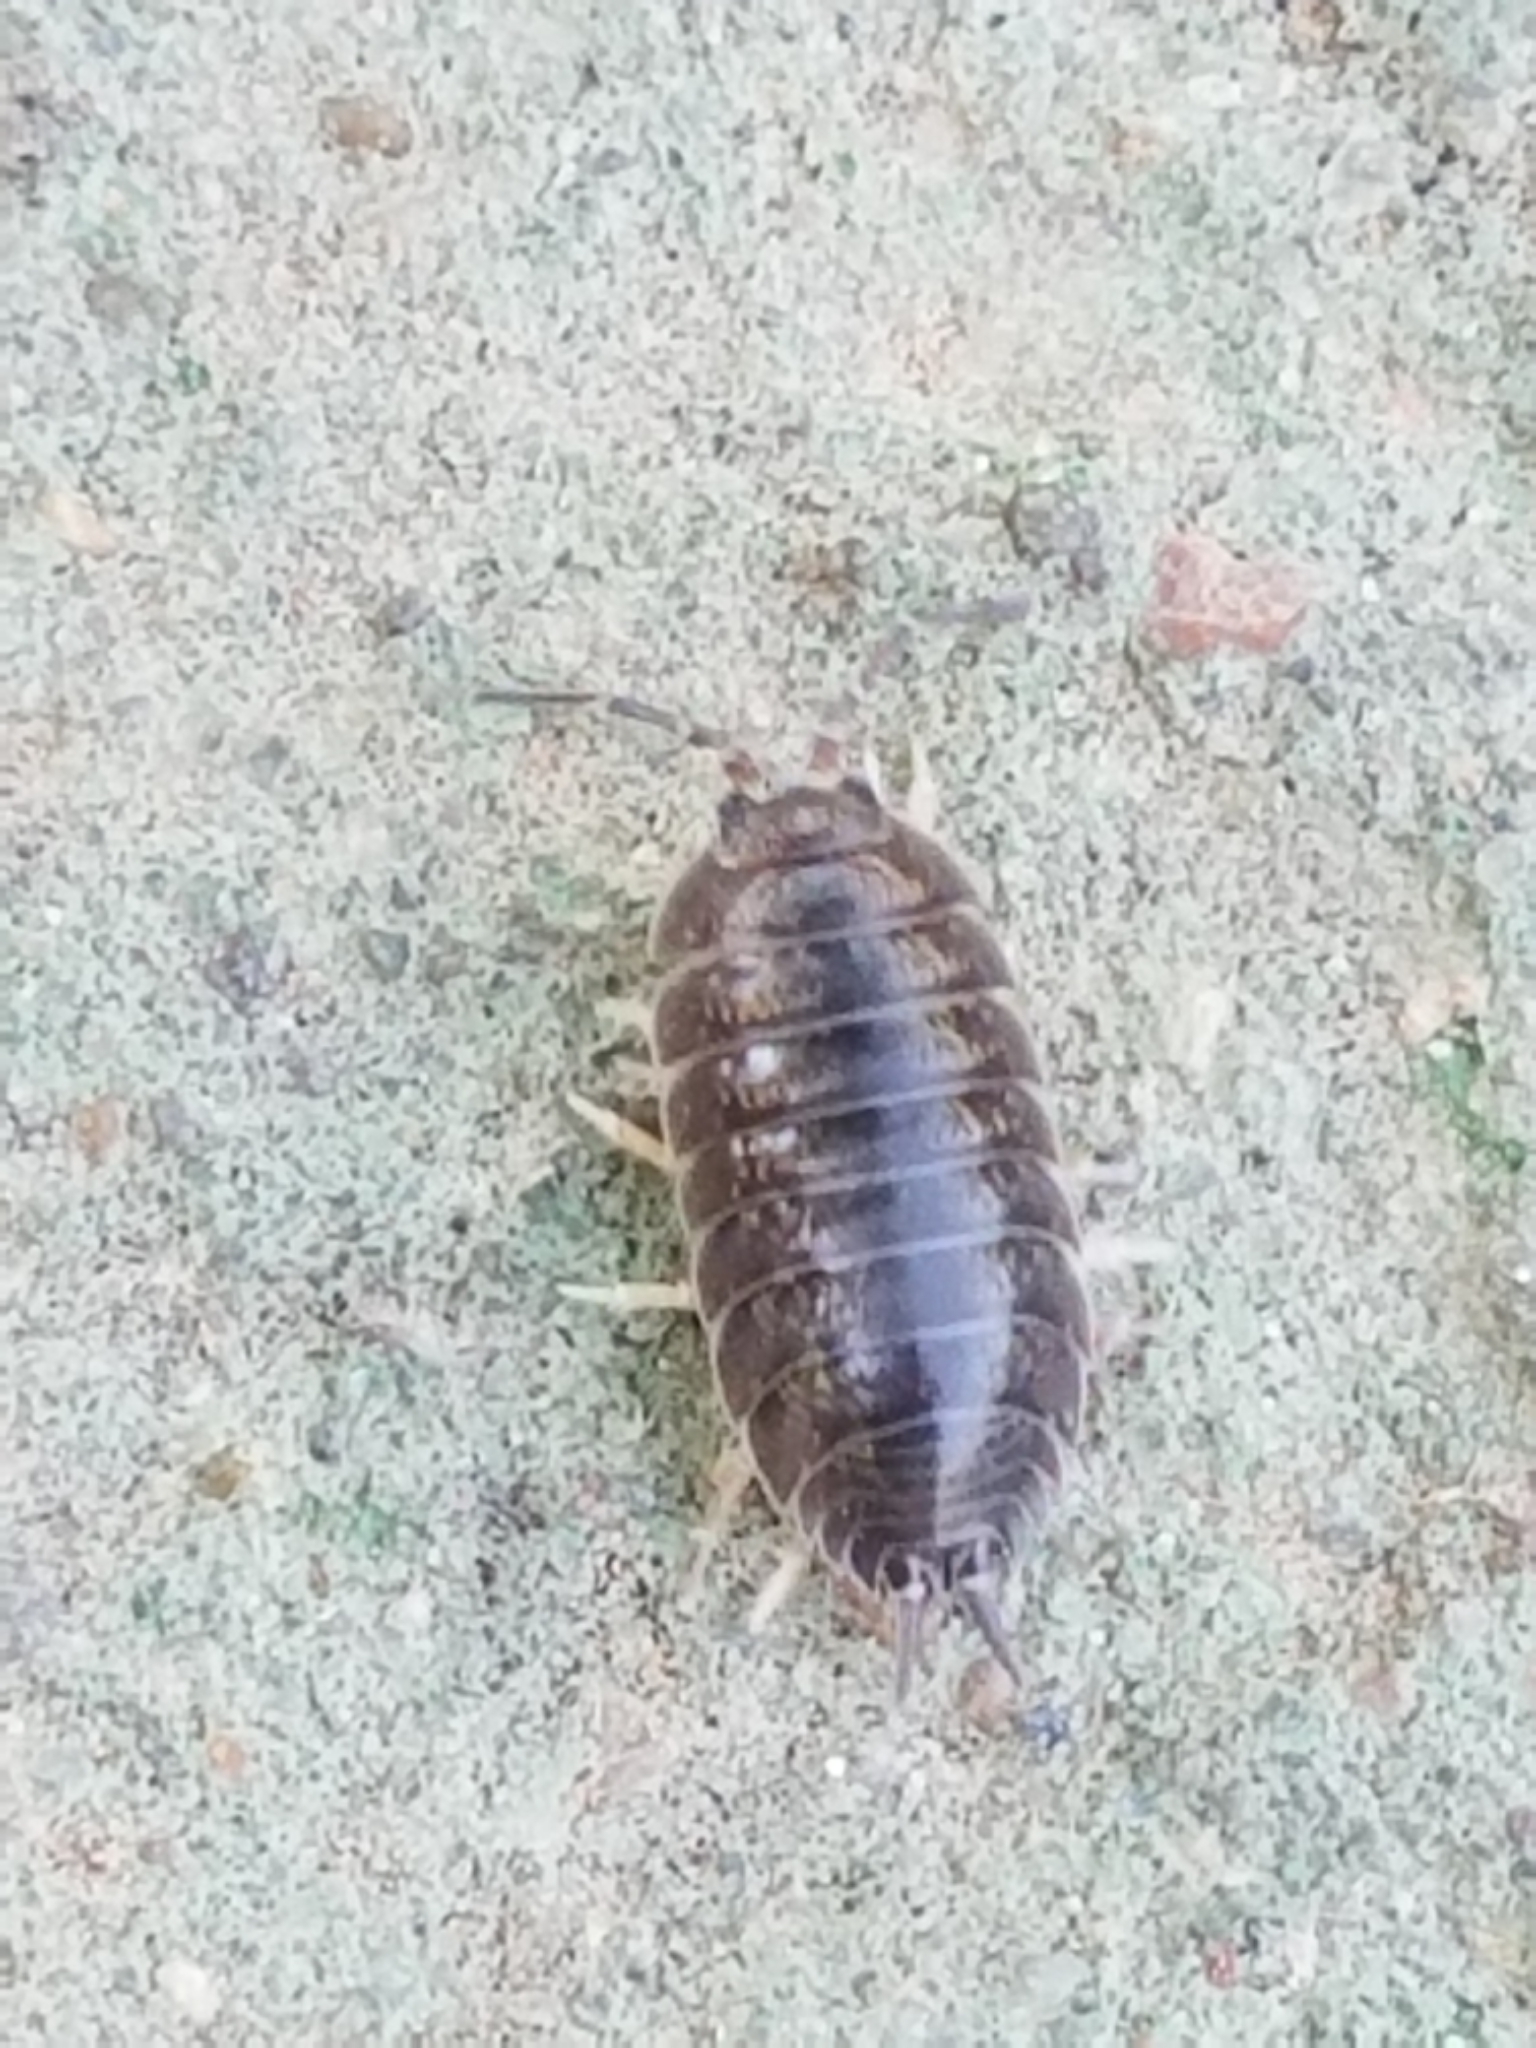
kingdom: Animalia
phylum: Arthropoda
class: Malacostraca
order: Isopoda
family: Porcellionidae
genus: Porcellio
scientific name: Porcellio laevis
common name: Swift woodlouse
